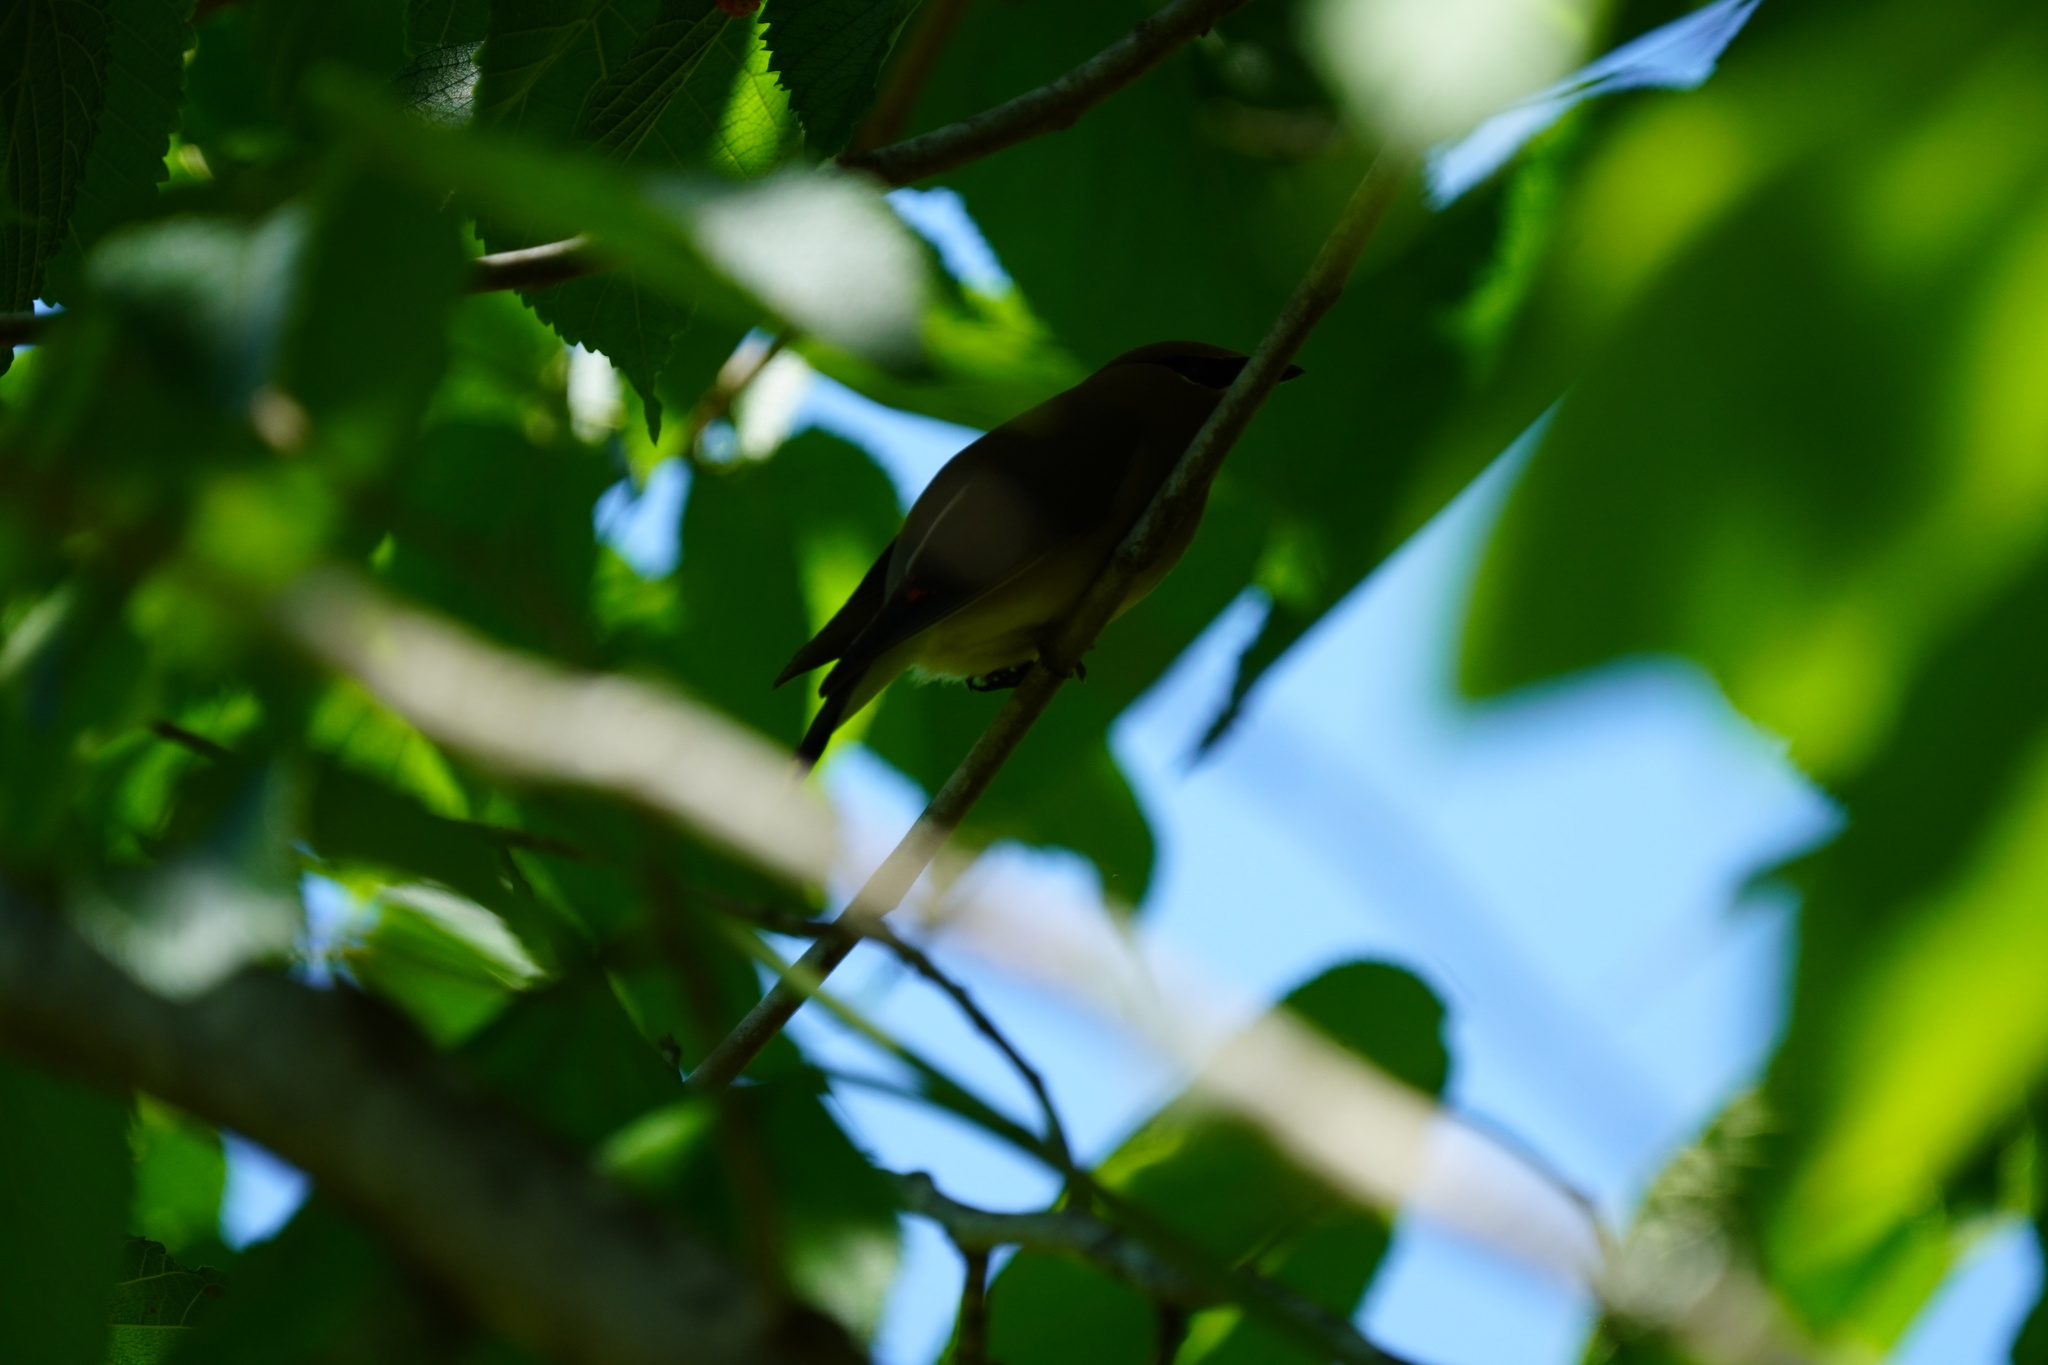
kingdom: Animalia
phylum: Chordata
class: Aves
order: Passeriformes
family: Bombycillidae
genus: Bombycilla
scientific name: Bombycilla cedrorum
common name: Cedar waxwing
